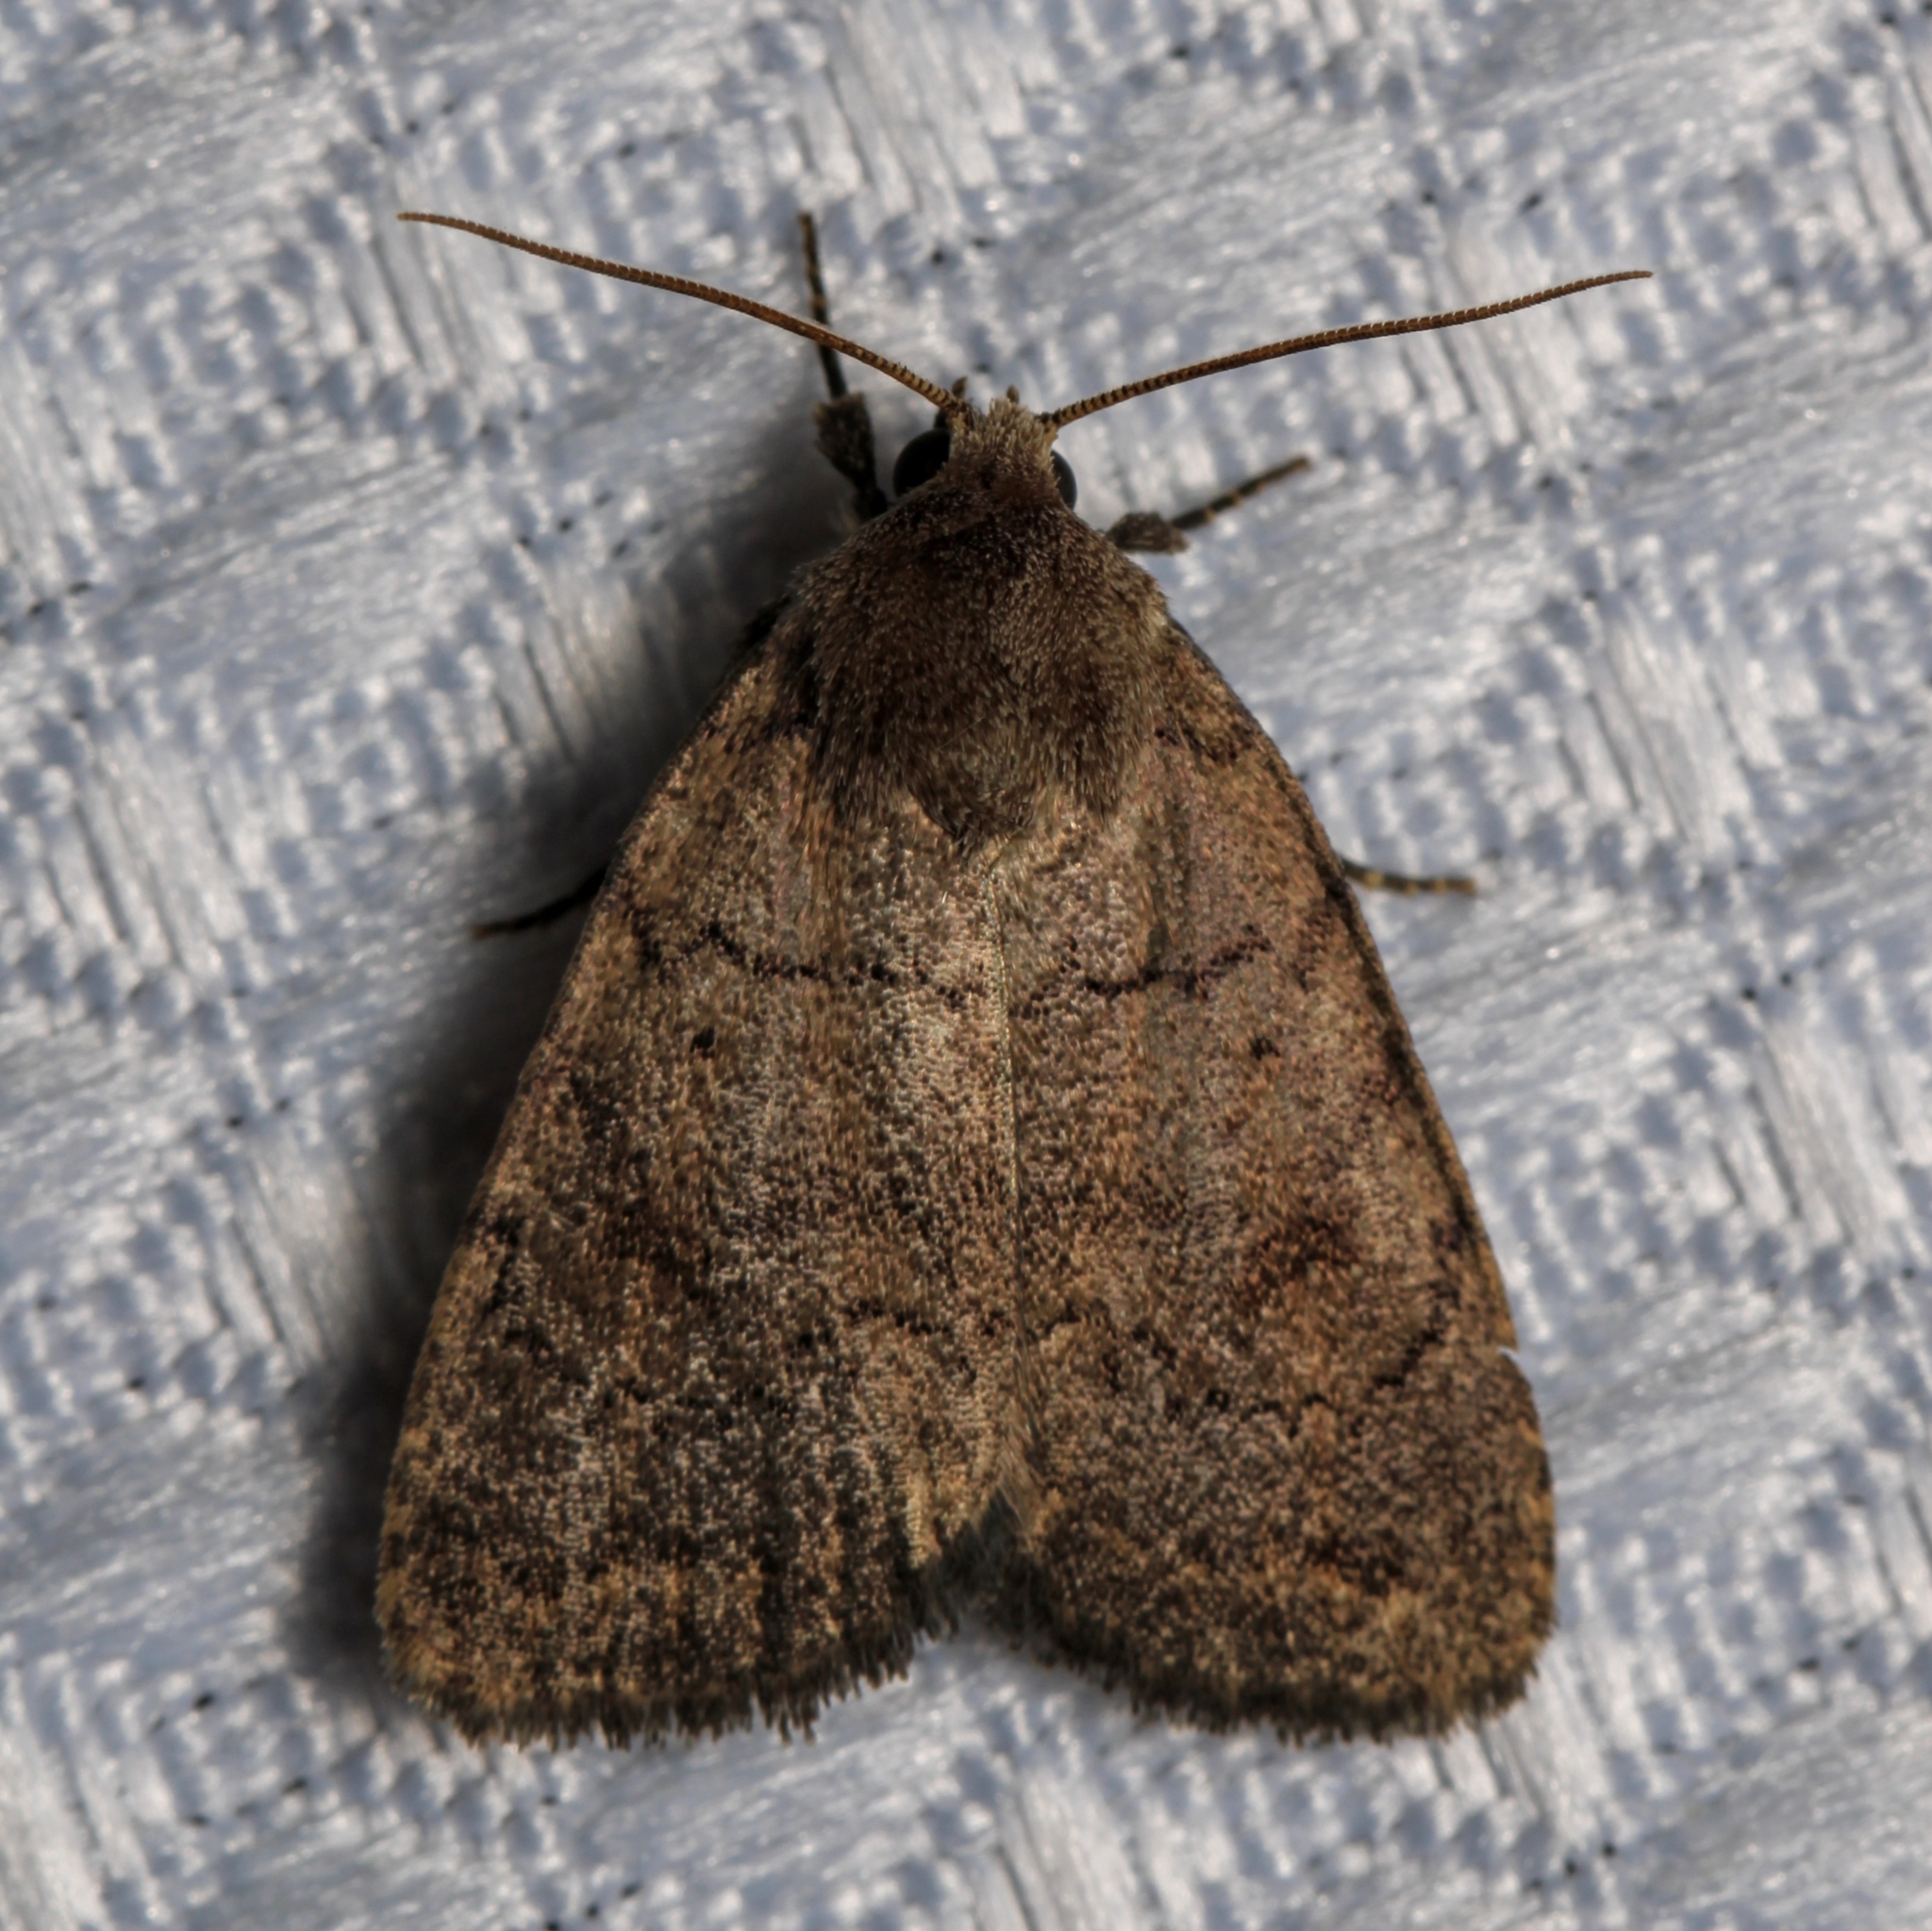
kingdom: Animalia
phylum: Arthropoda
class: Insecta
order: Lepidoptera
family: Noctuidae
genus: Athetis
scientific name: Athetis tarda
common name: Slowpoke moth
